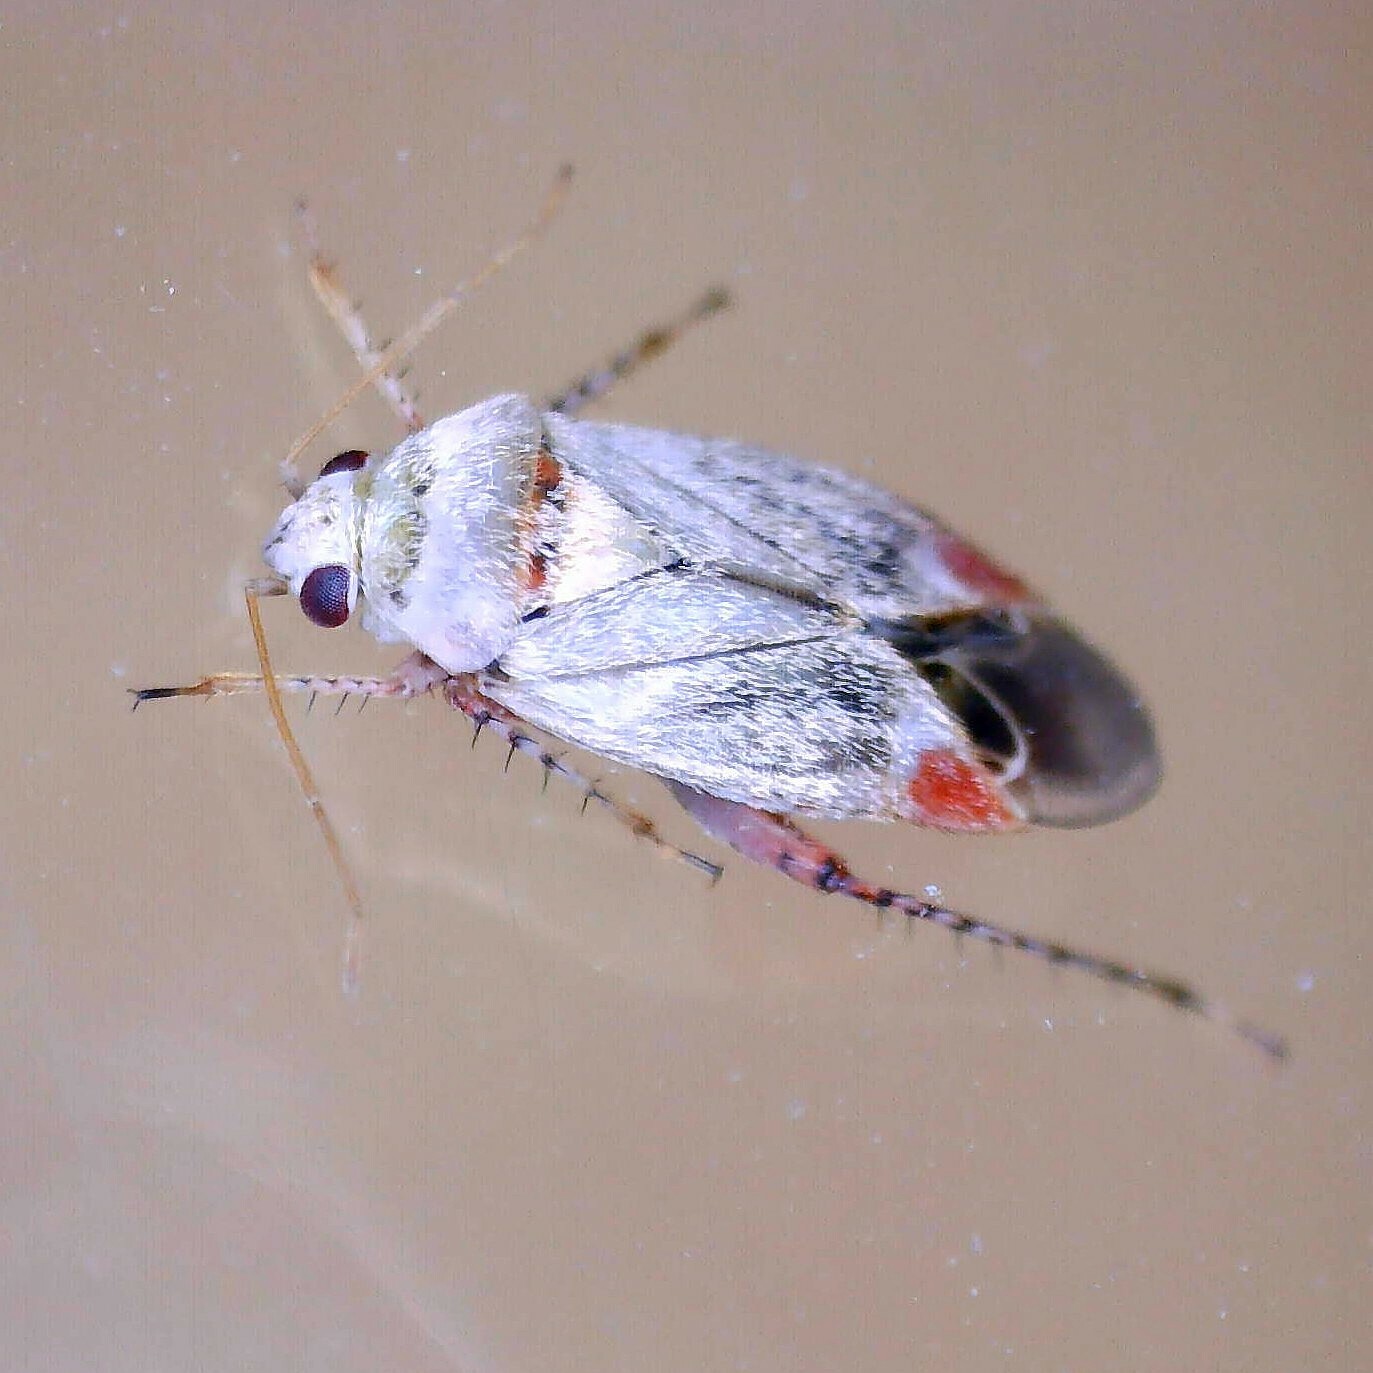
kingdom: Animalia
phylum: Arthropoda
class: Insecta
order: Hemiptera
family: Miridae
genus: Sthenarus
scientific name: Sthenarus rotermundi
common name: Leaf bug
